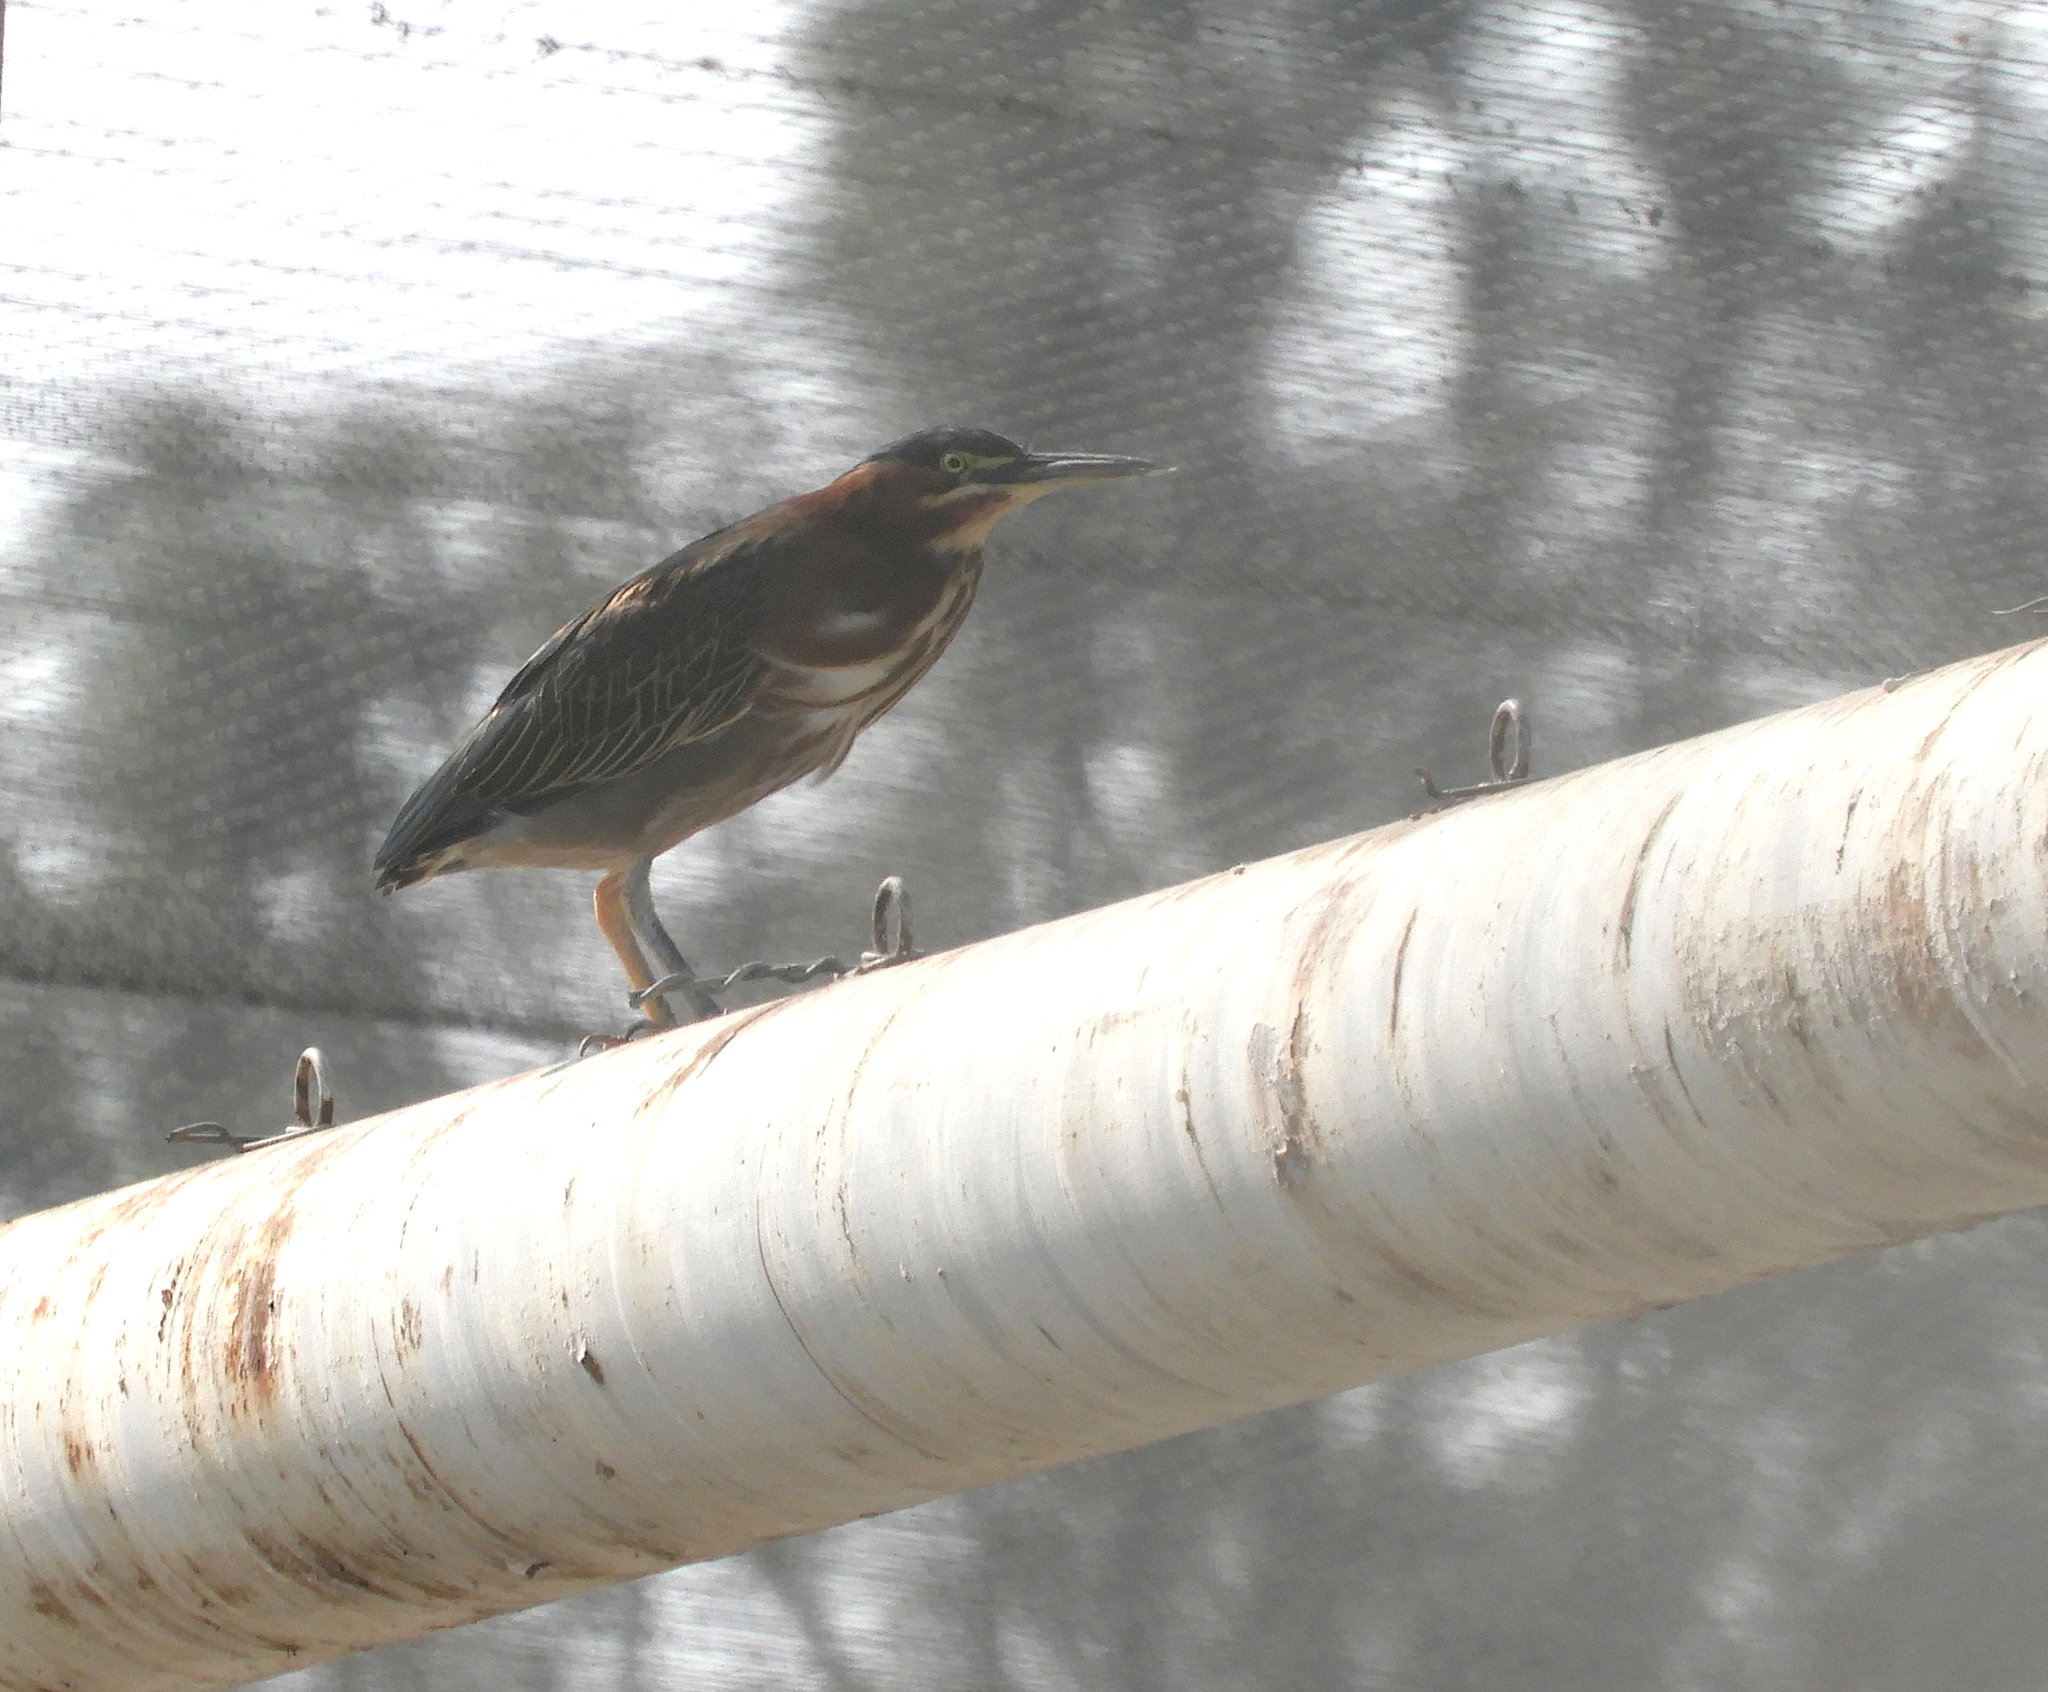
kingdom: Animalia
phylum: Chordata
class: Aves
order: Pelecaniformes
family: Ardeidae
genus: Butorides
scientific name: Butorides virescens
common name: Green heron
